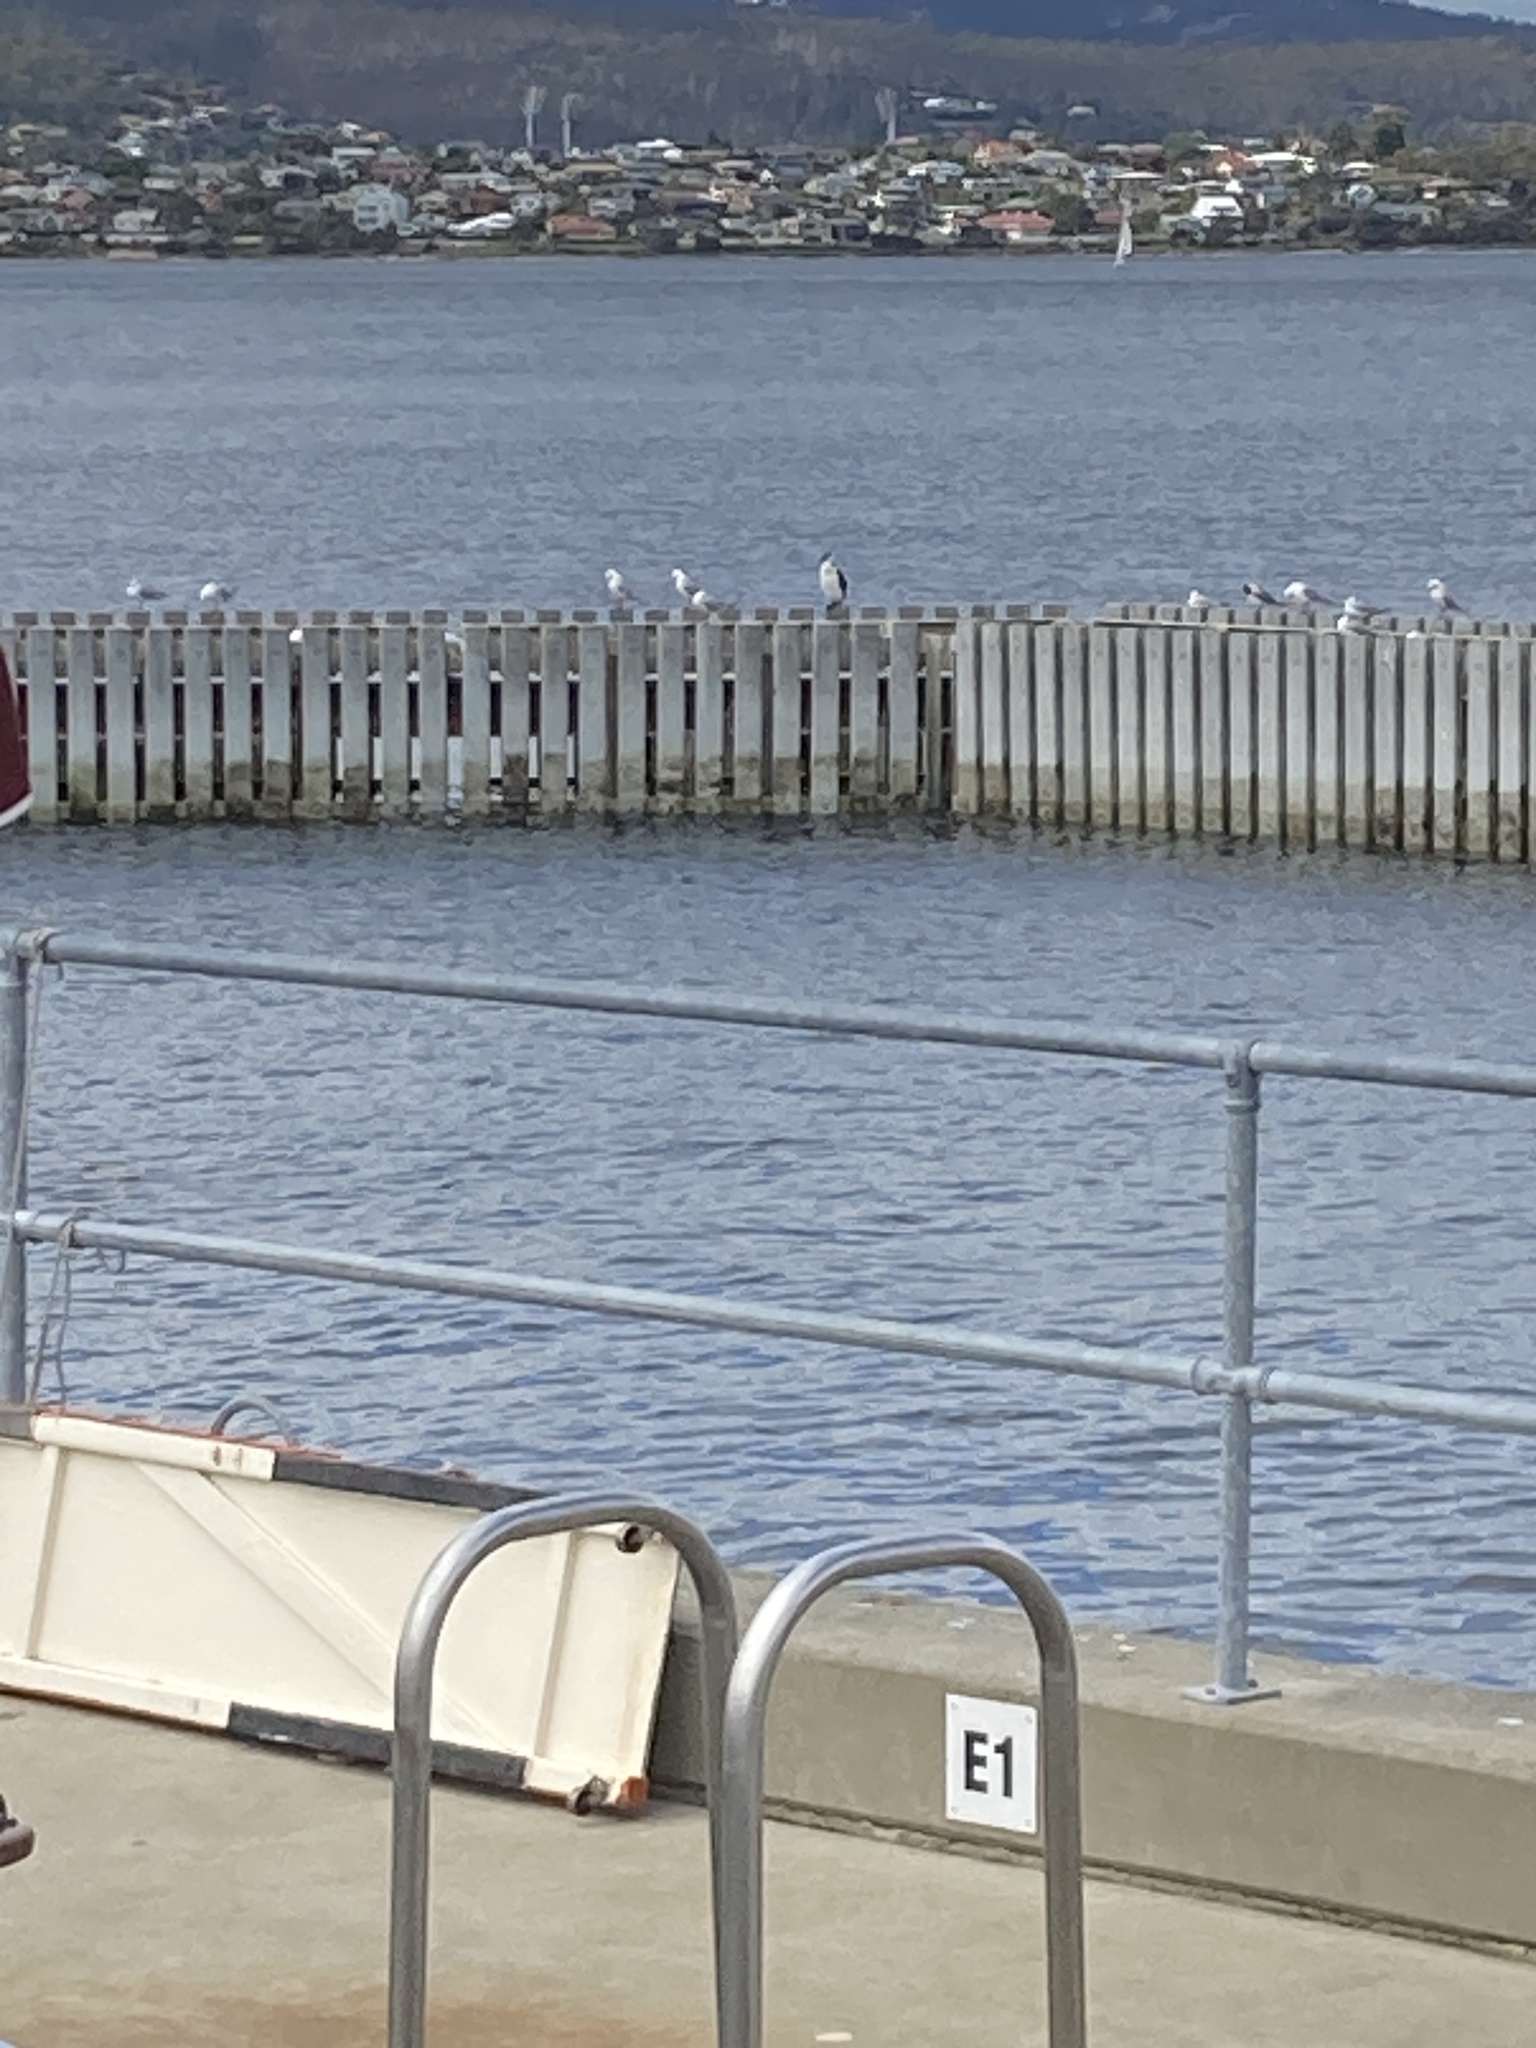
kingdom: Animalia
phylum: Chordata
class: Aves
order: Charadriiformes
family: Laridae
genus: Thalasseus
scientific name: Thalasseus bergii
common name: Greater crested tern
